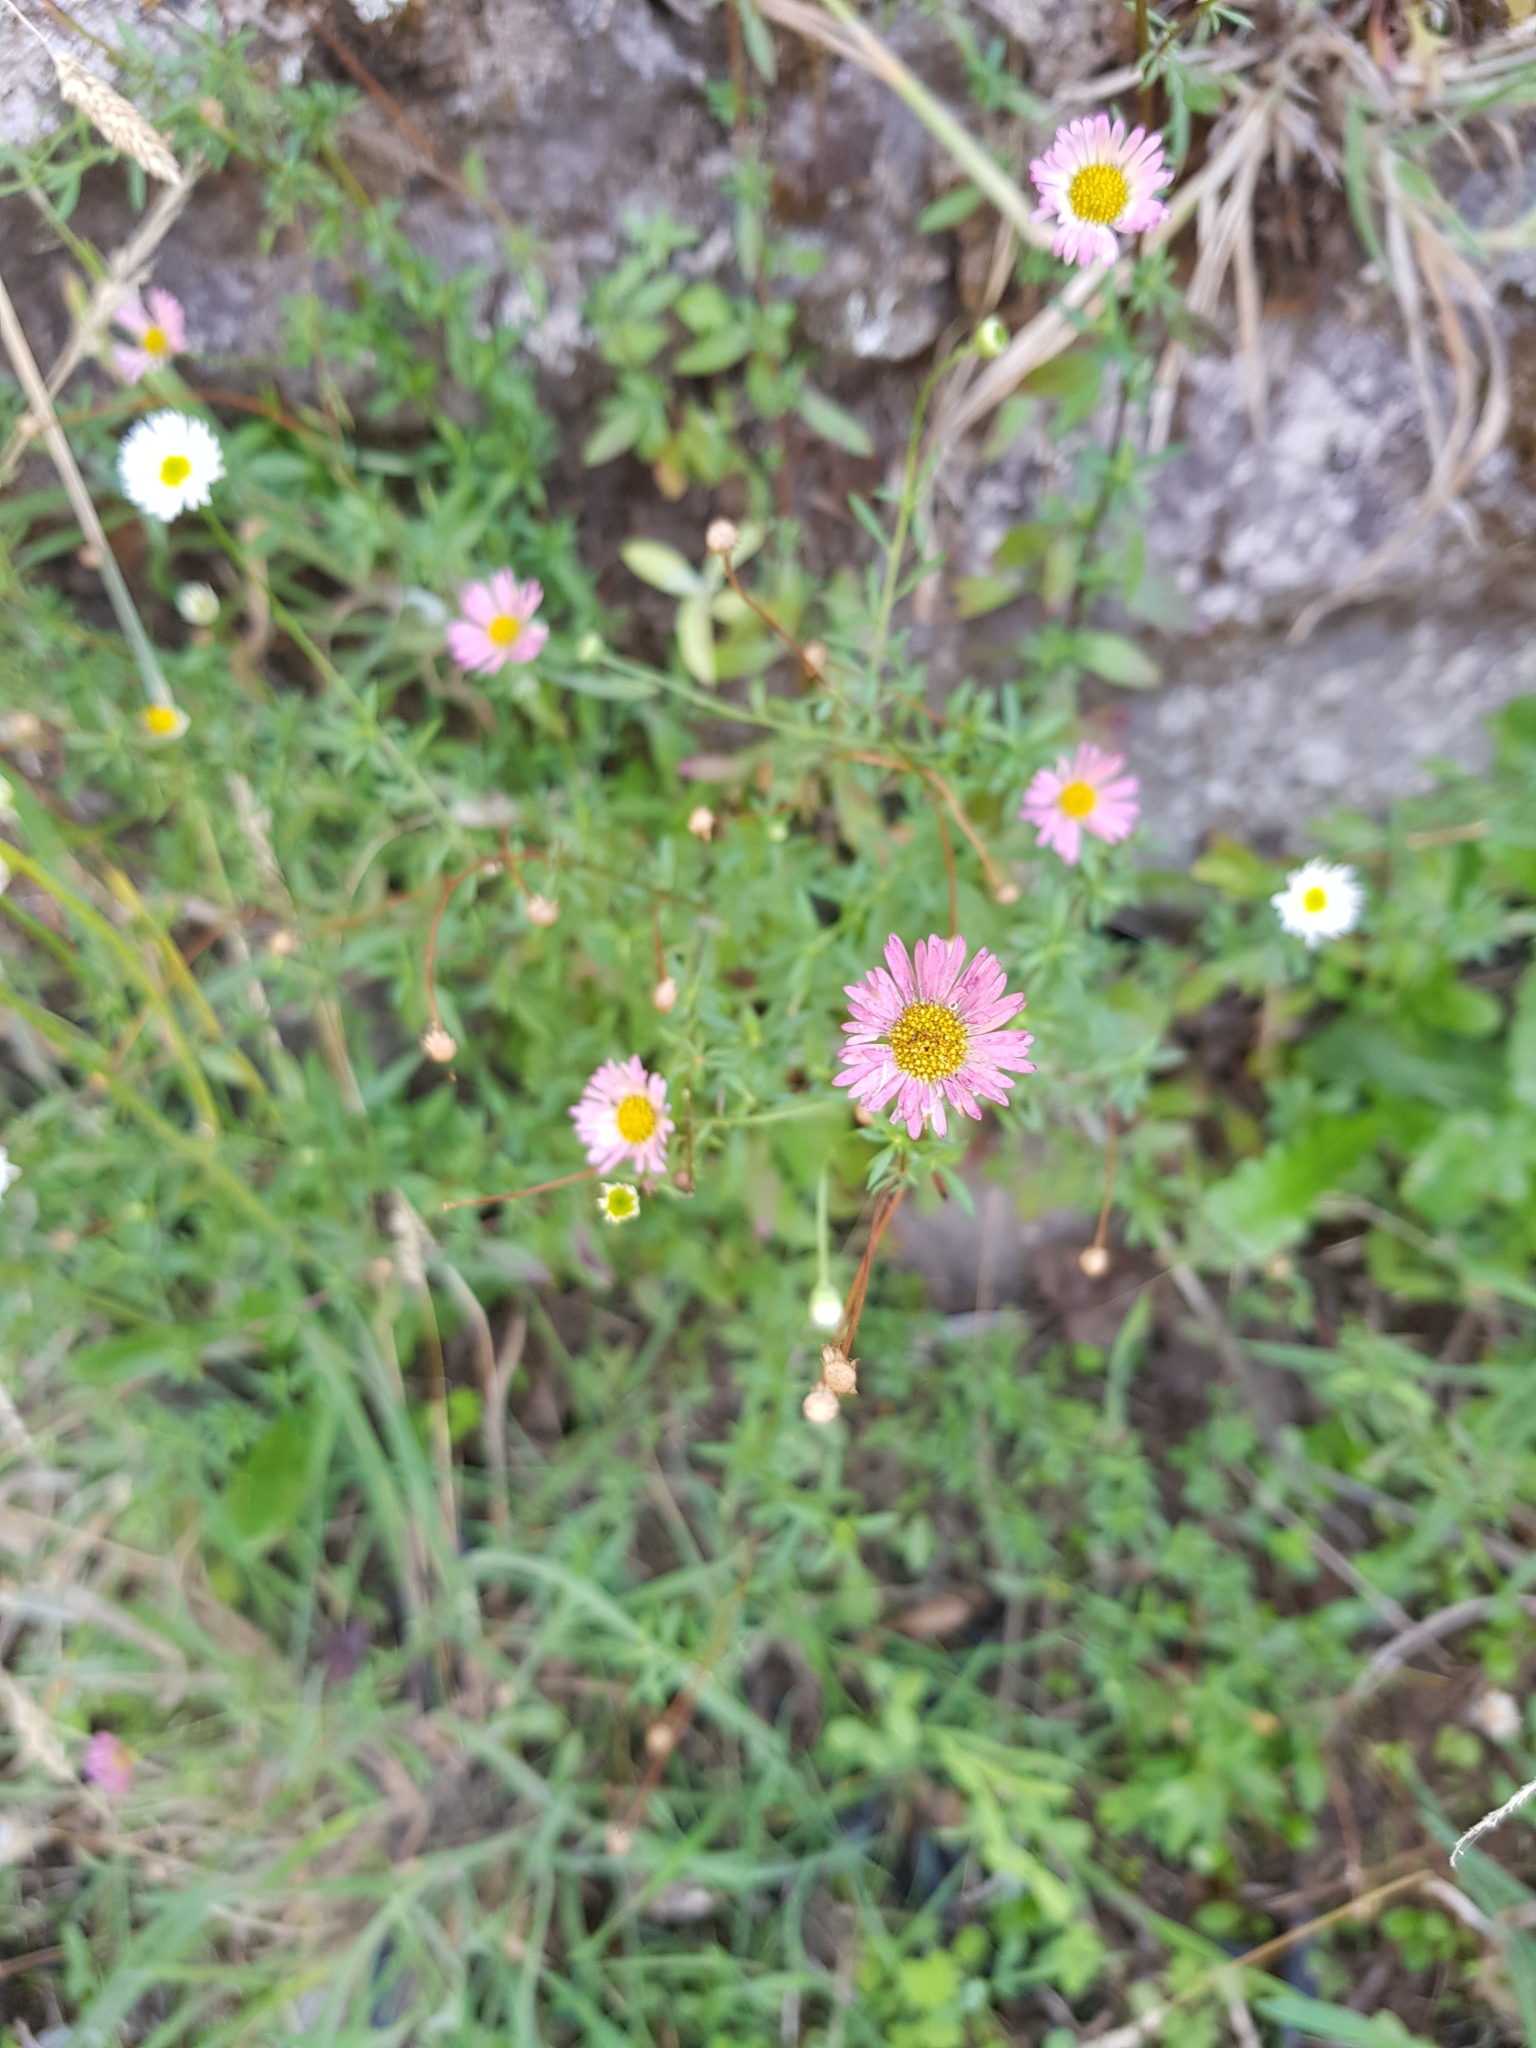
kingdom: Plantae
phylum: Tracheophyta
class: Magnoliopsida
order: Asterales
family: Asteraceae
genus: Erigeron
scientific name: Erigeron karvinskianus
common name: Mexican fleabane
